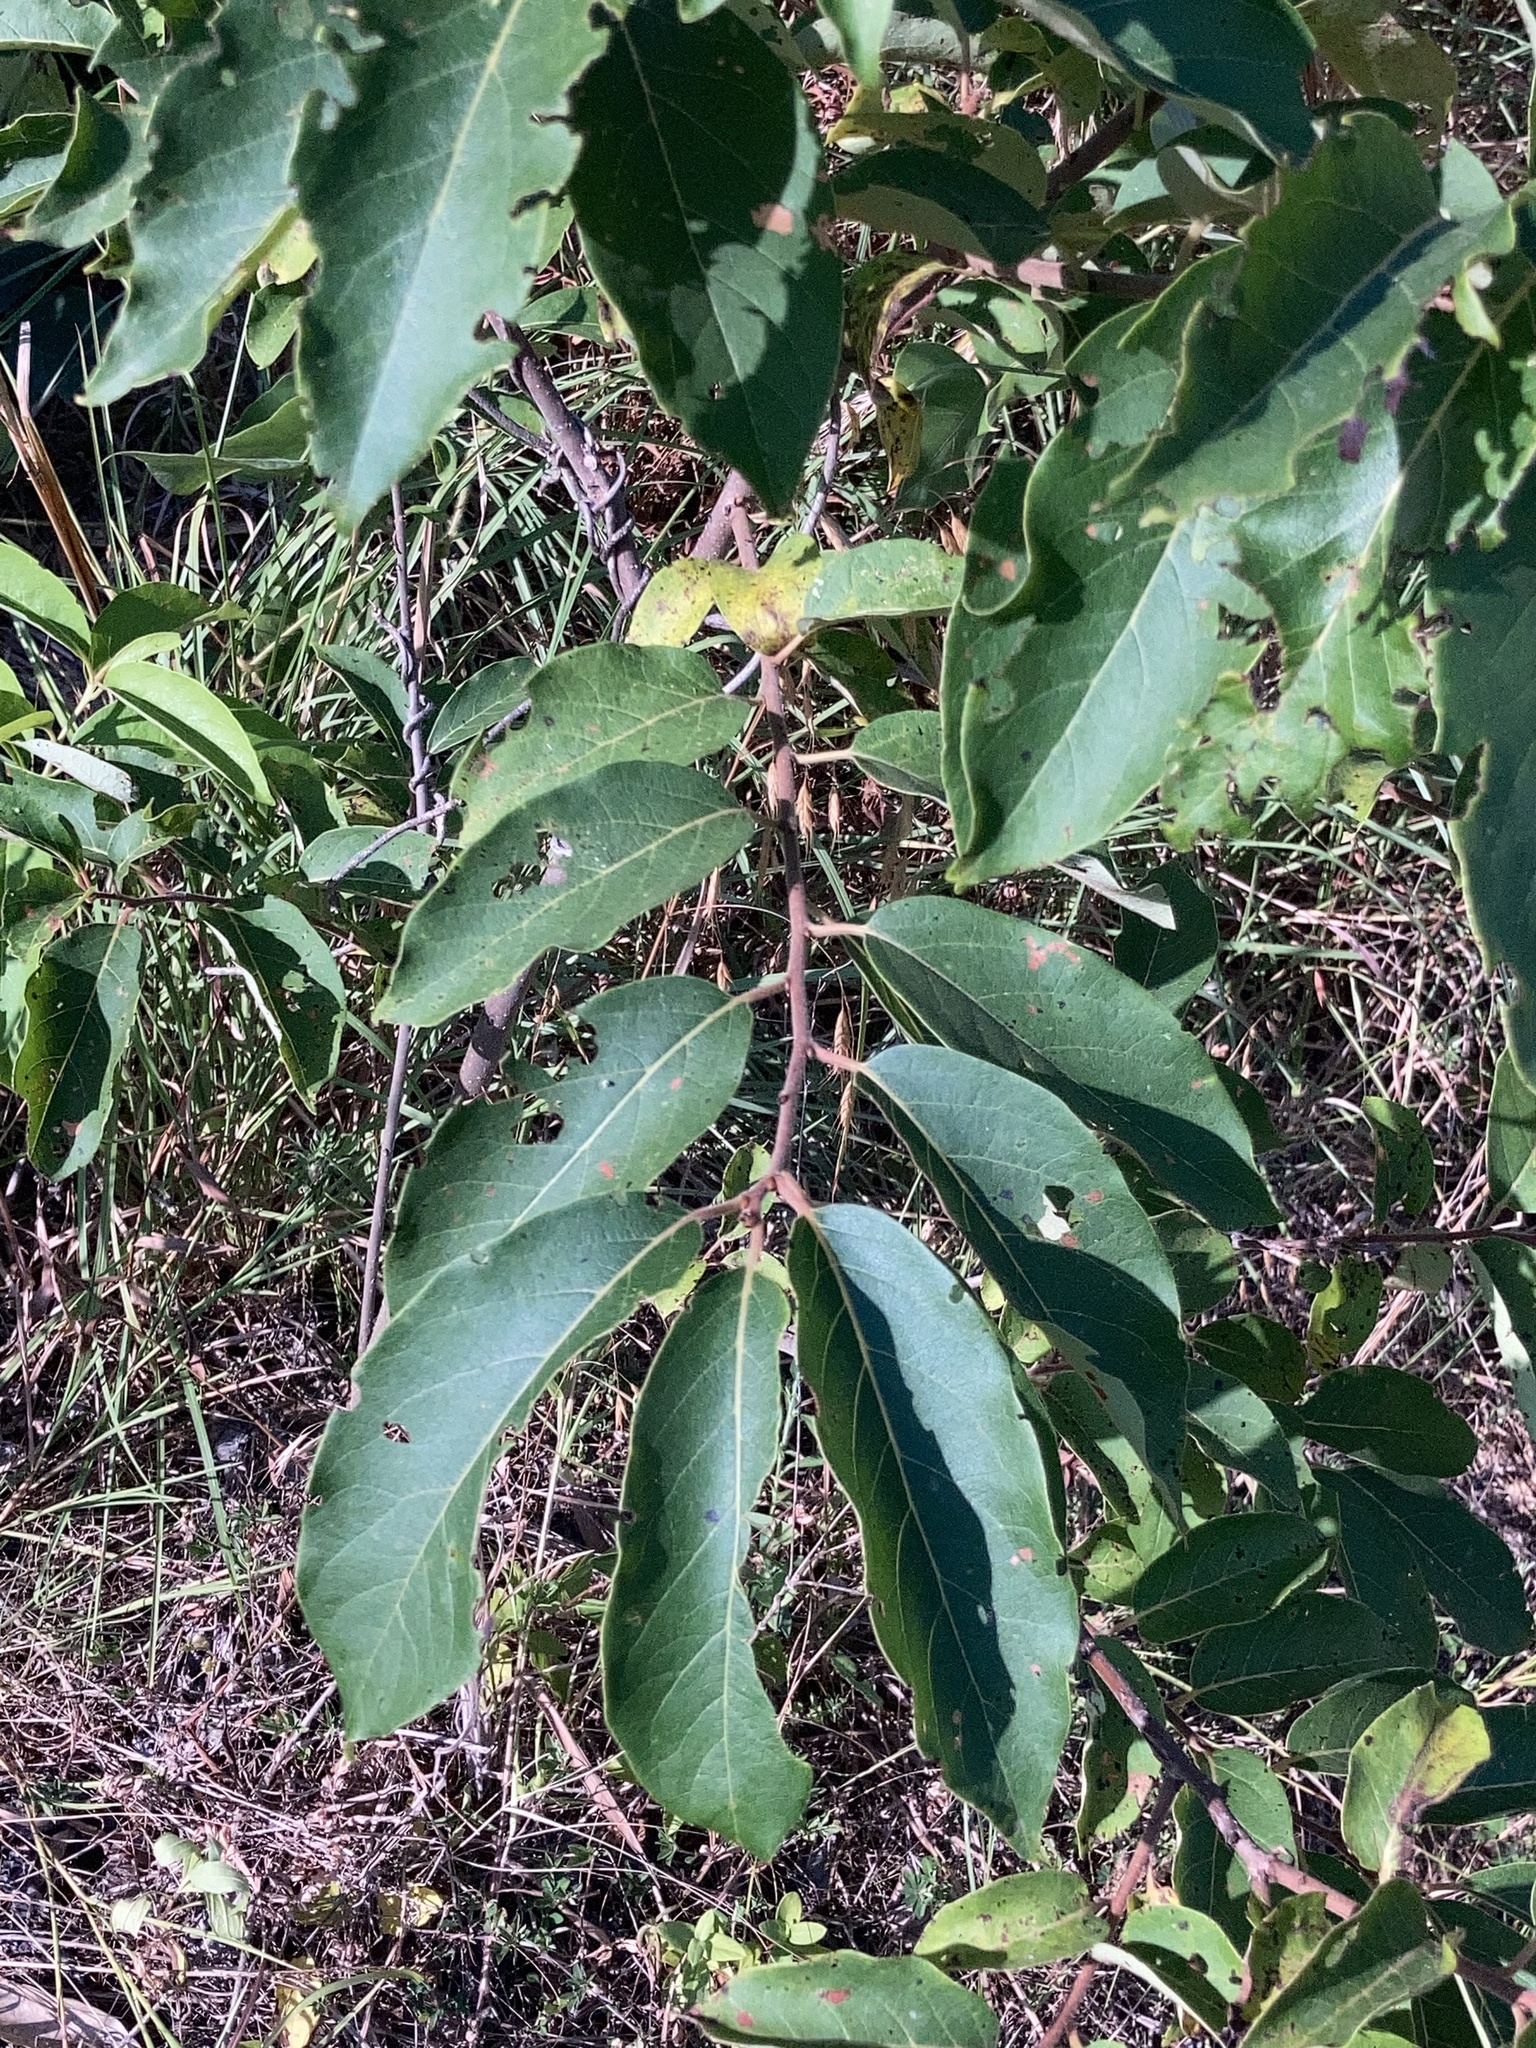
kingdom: Plantae
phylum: Tracheophyta
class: Magnoliopsida
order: Ericales
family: Ebenaceae
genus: Diospyros
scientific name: Diospyros virginiana
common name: Persimmon
